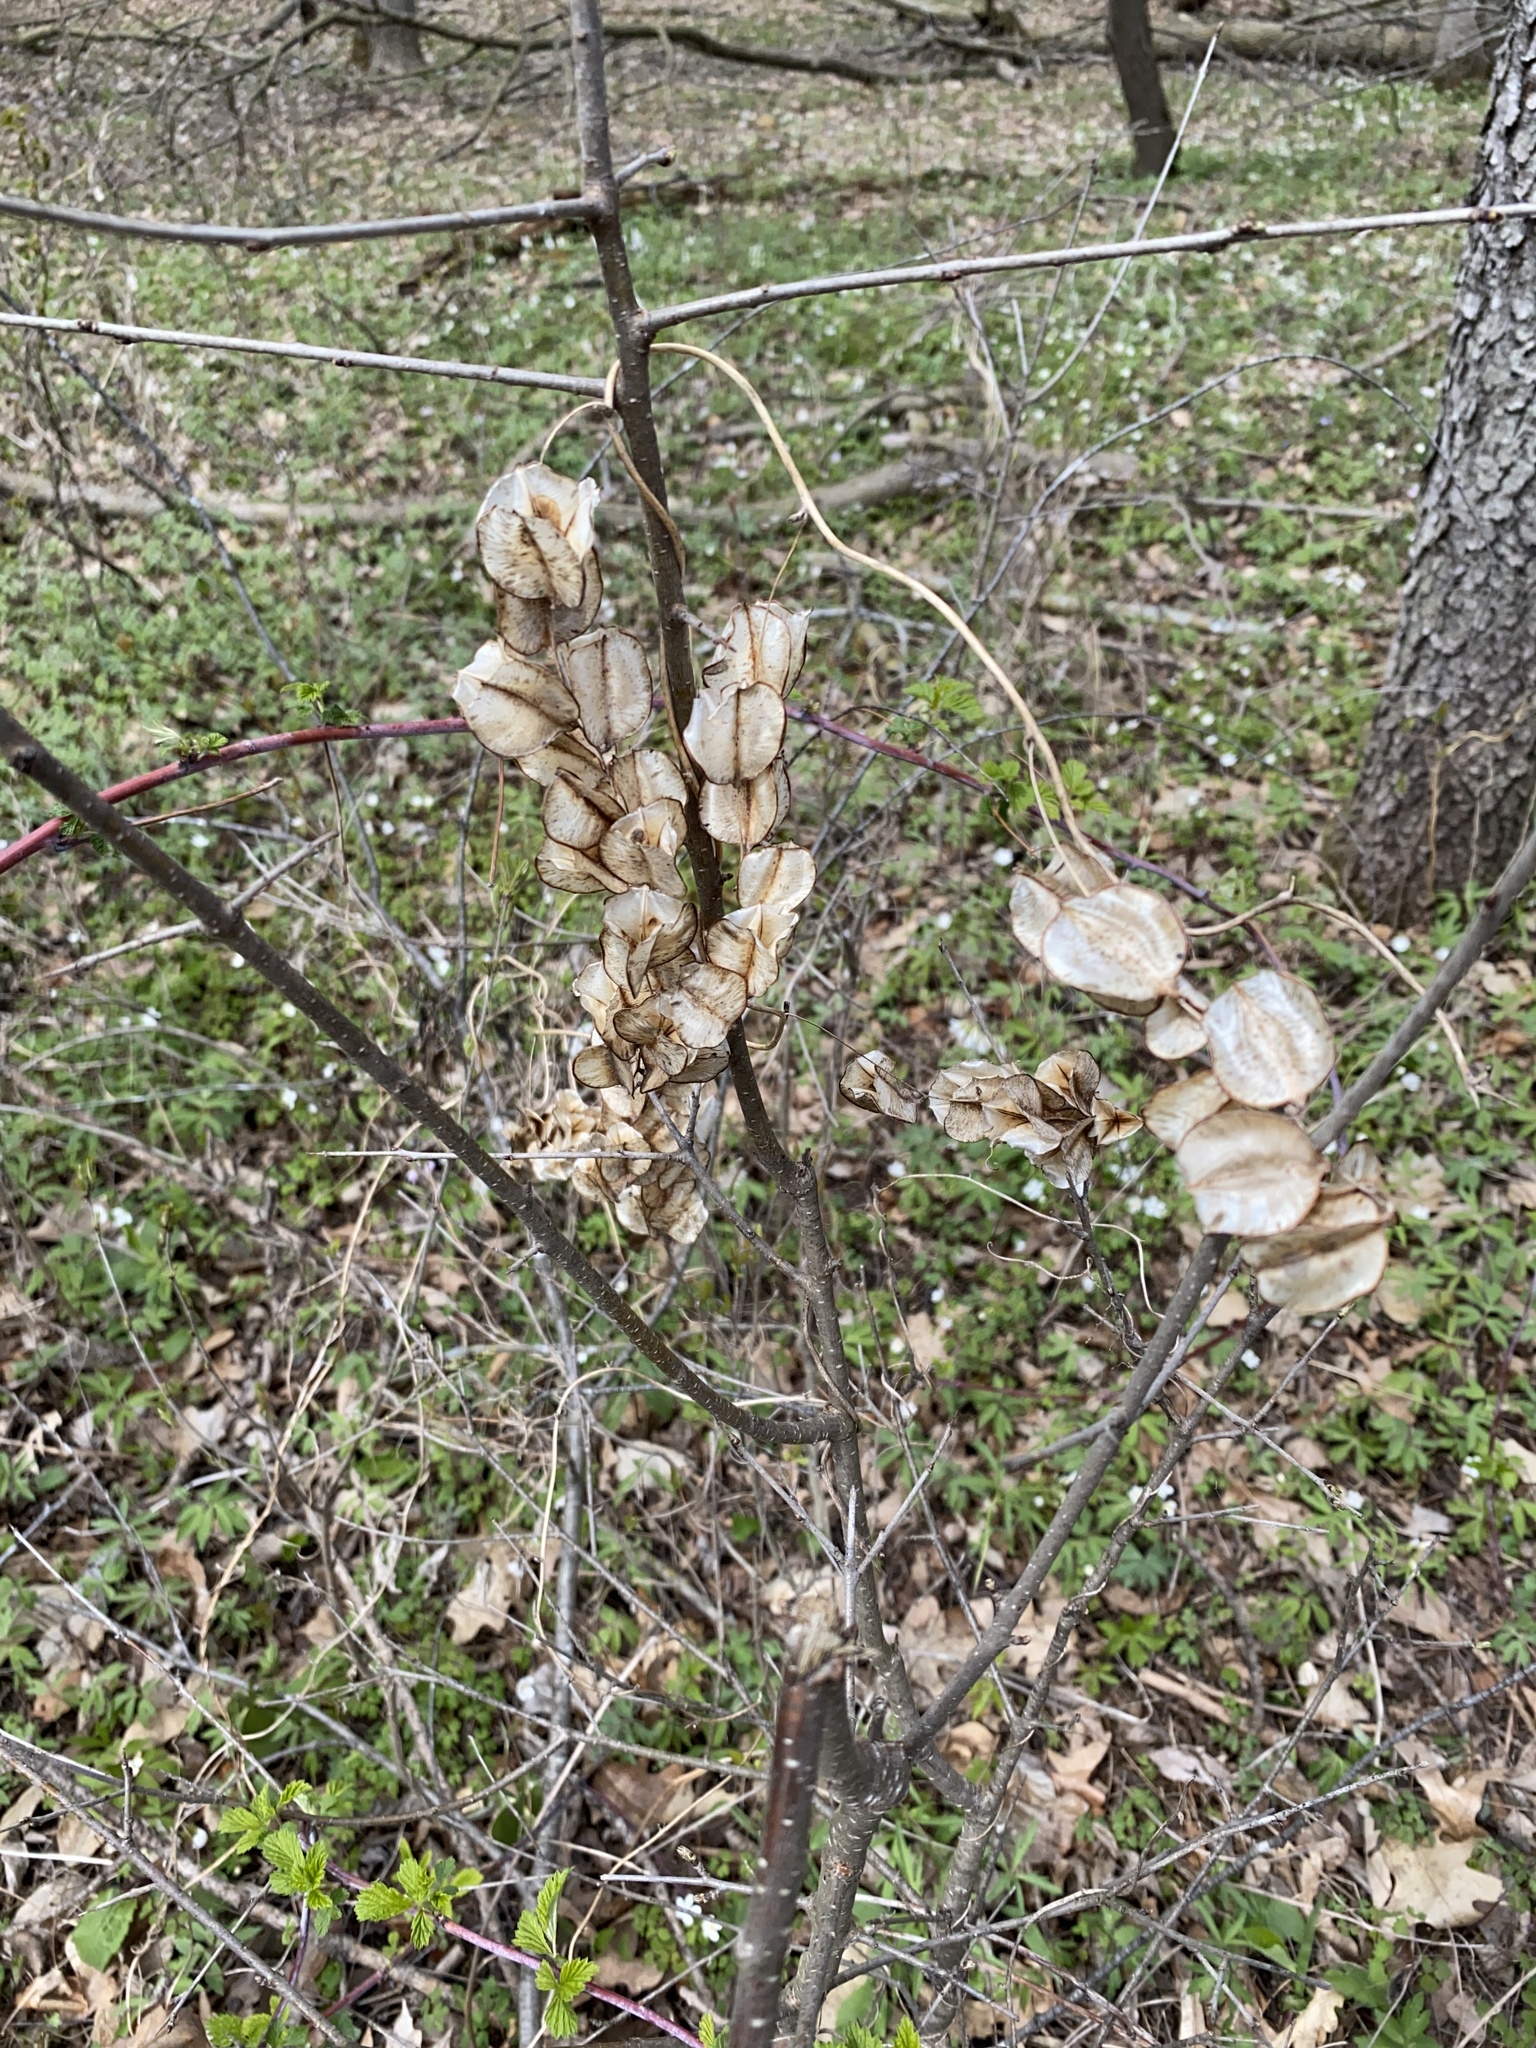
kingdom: Plantae
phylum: Tracheophyta
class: Liliopsida
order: Dioscoreales
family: Dioscoreaceae
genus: Dioscorea
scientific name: Dioscorea villosa
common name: Wild yam
